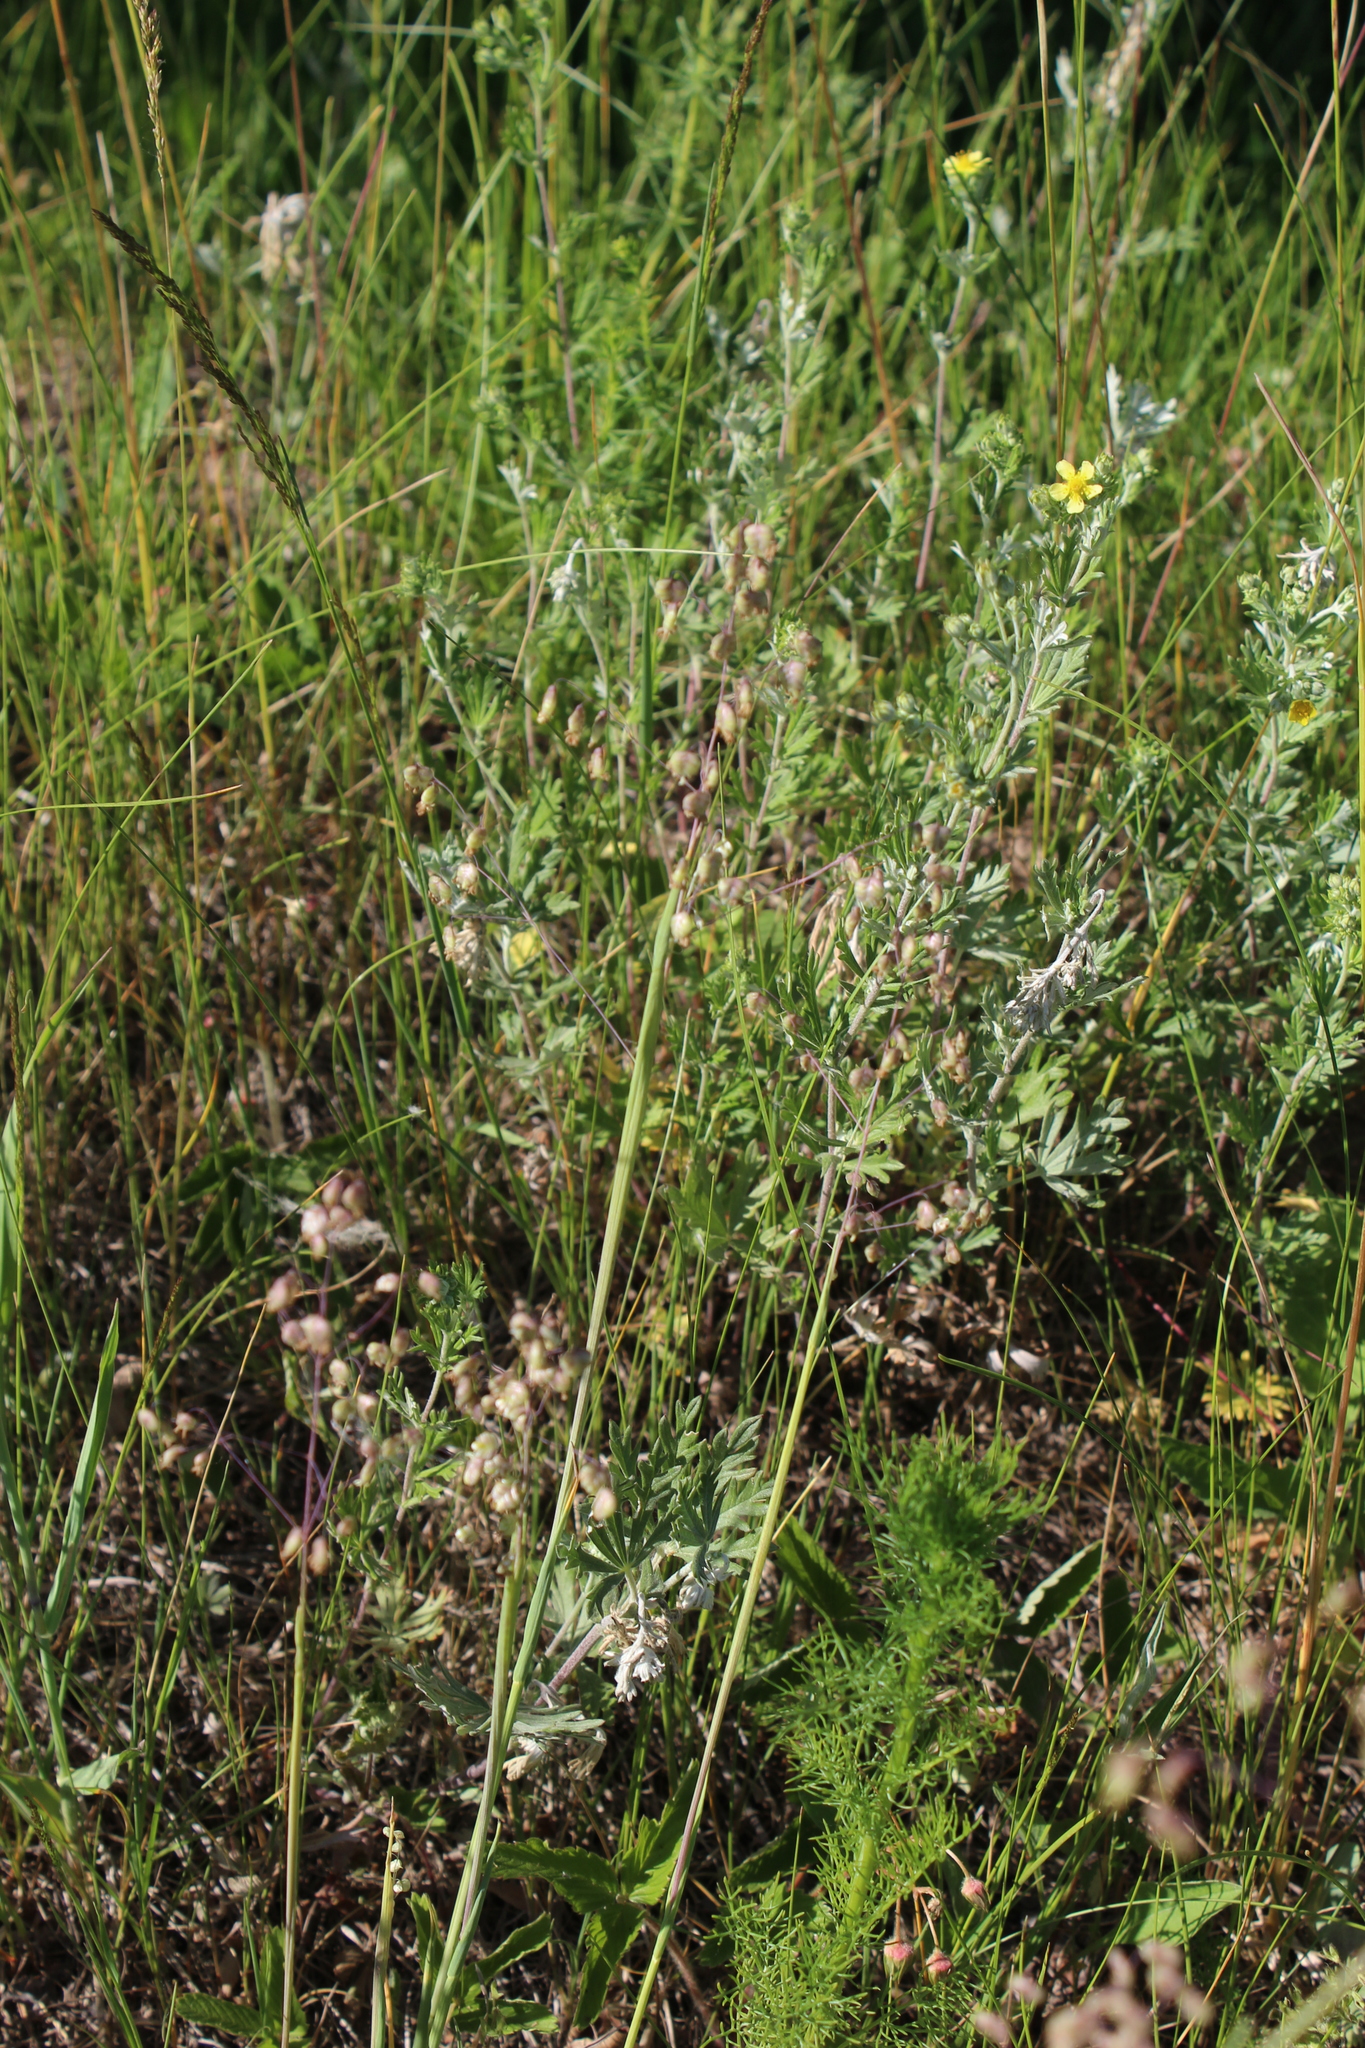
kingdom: Plantae
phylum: Tracheophyta
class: Liliopsida
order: Poales
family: Poaceae
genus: Briza
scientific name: Briza media
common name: Quaking grass
